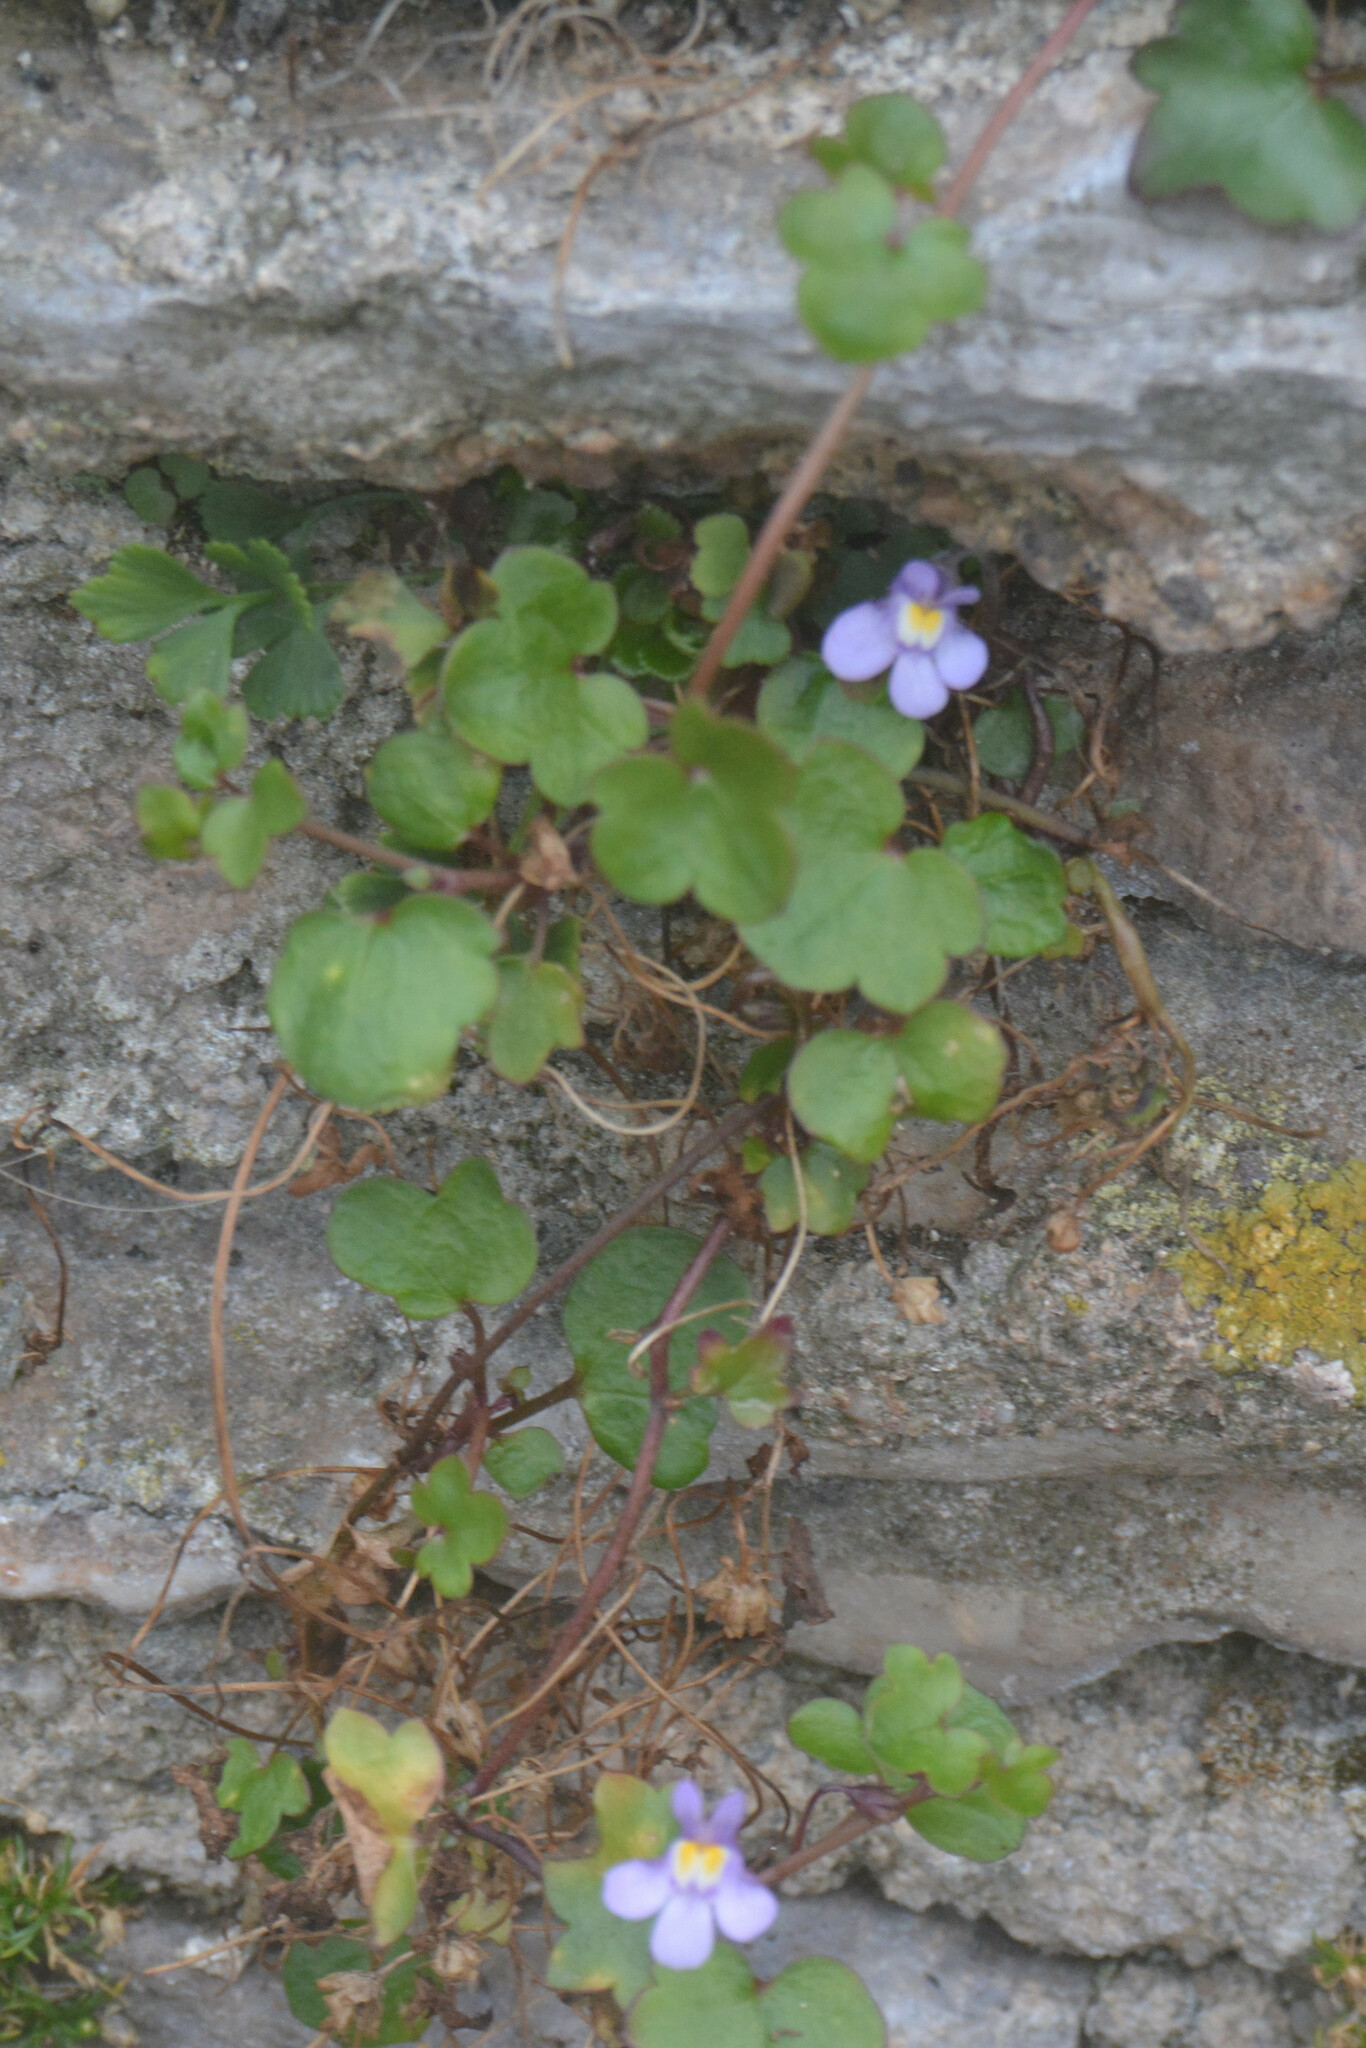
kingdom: Plantae
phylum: Tracheophyta
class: Magnoliopsida
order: Lamiales
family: Plantaginaceae
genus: Cymbalaria
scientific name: Cymbalaria muralis
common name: Ivy-leaved toadflax
